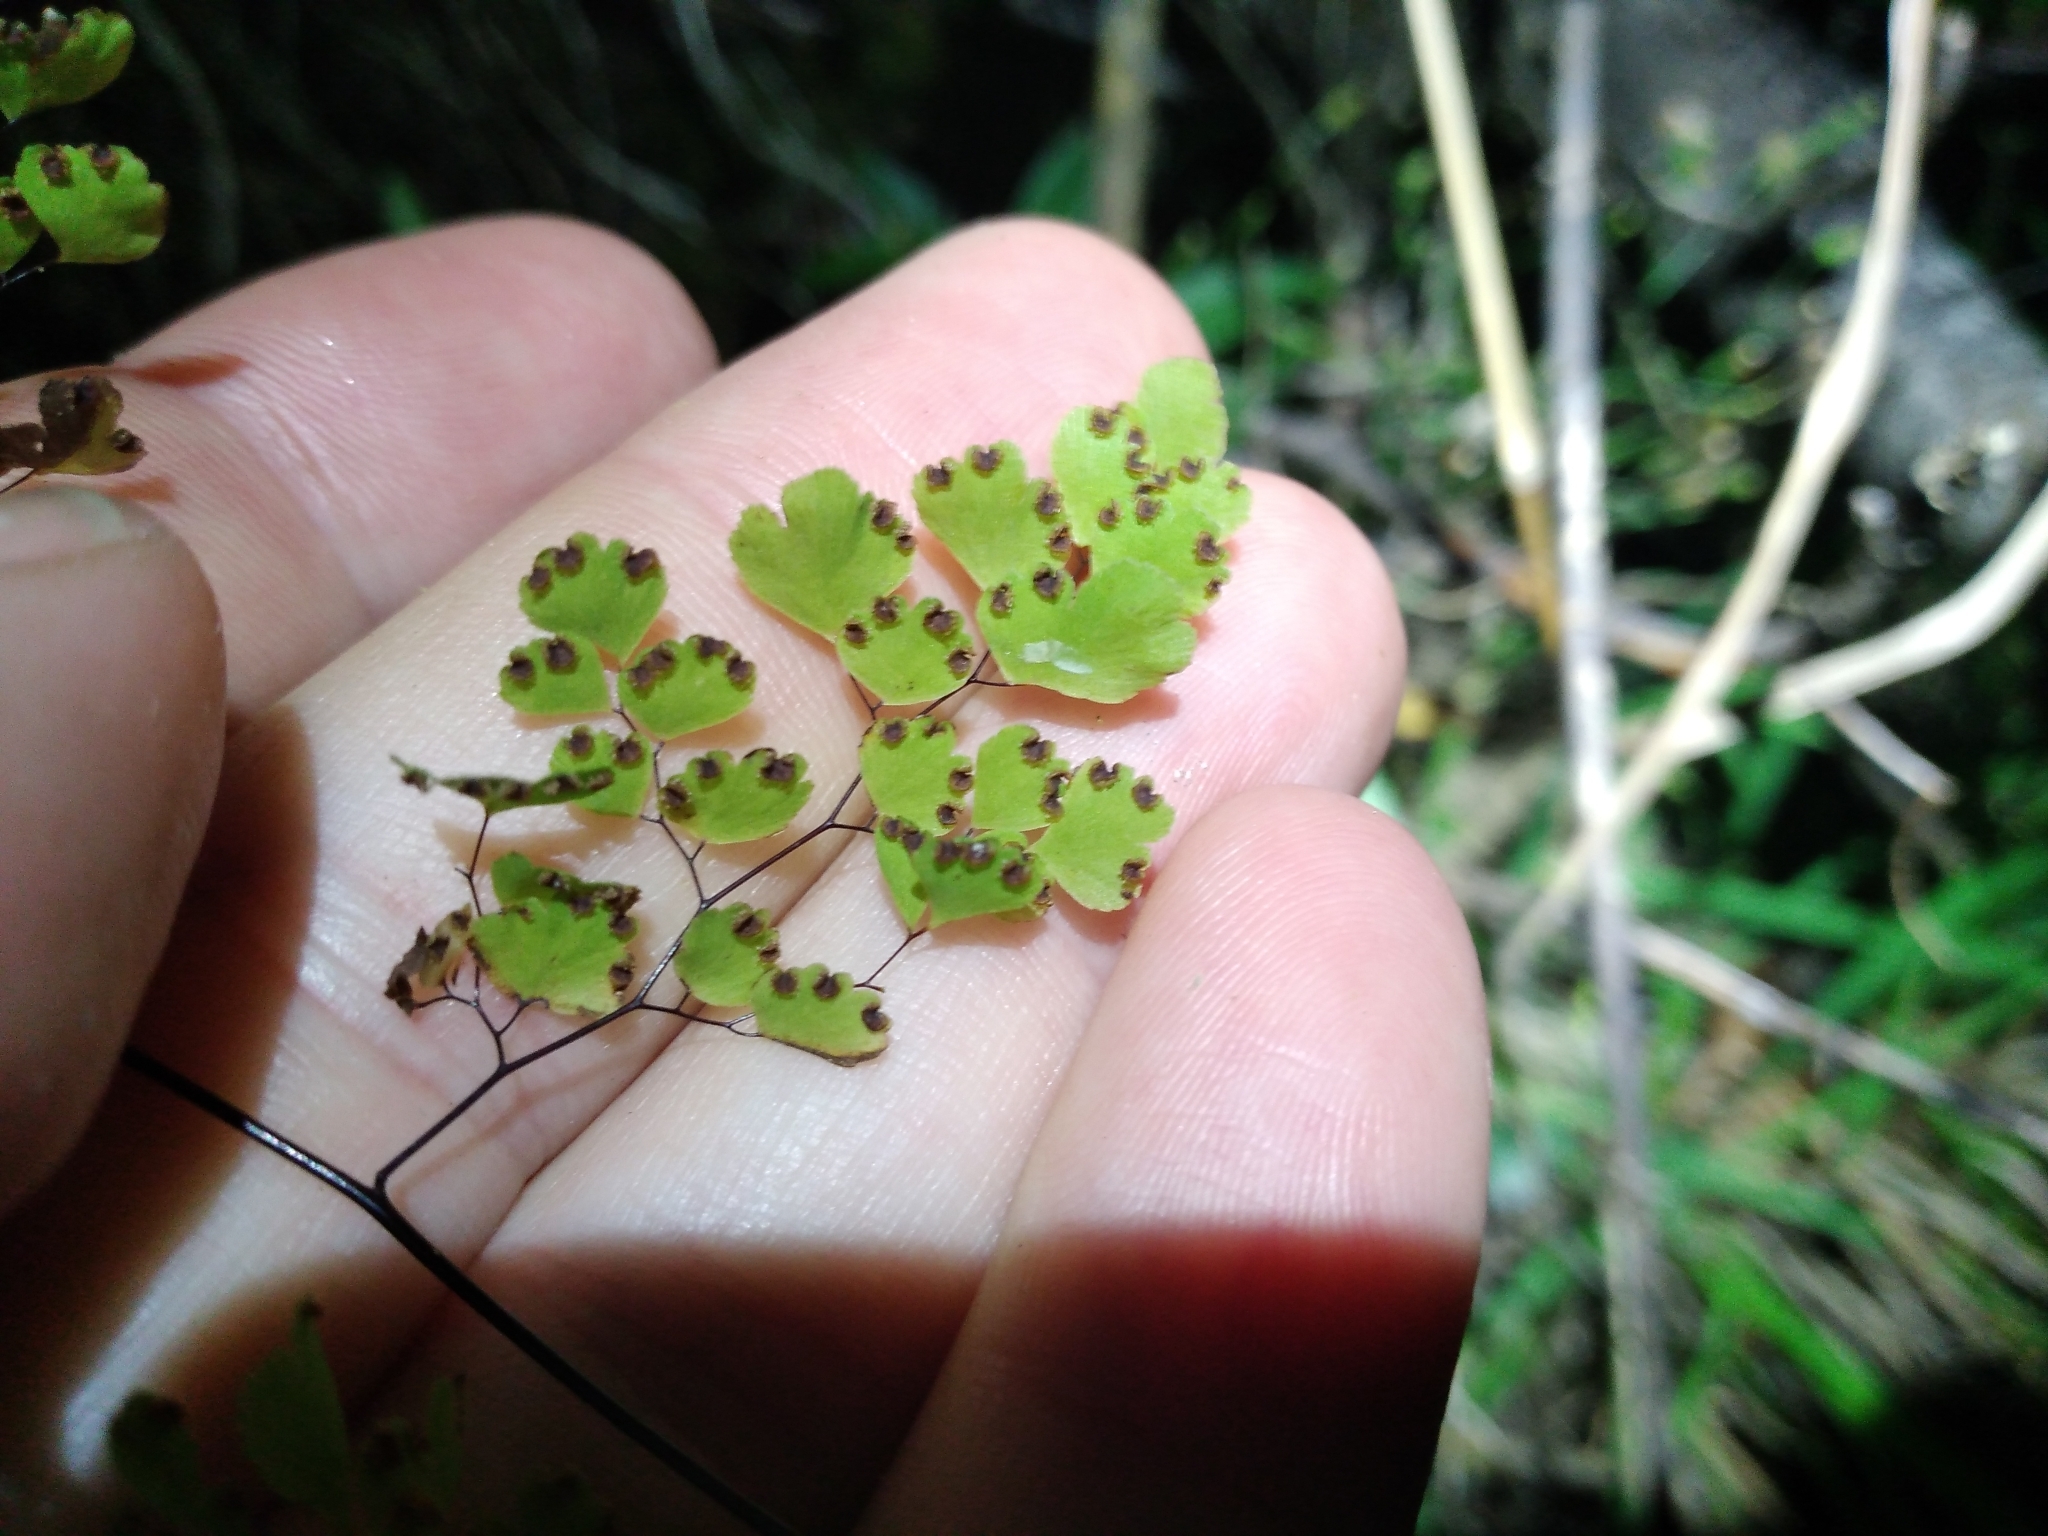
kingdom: Plantae
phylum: Tracheophyta
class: Polypodiopsida
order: Polypodiales
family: Pteridaceae
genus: Adiantum
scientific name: Adiantum raddianum
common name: Delta maidenhair fern
